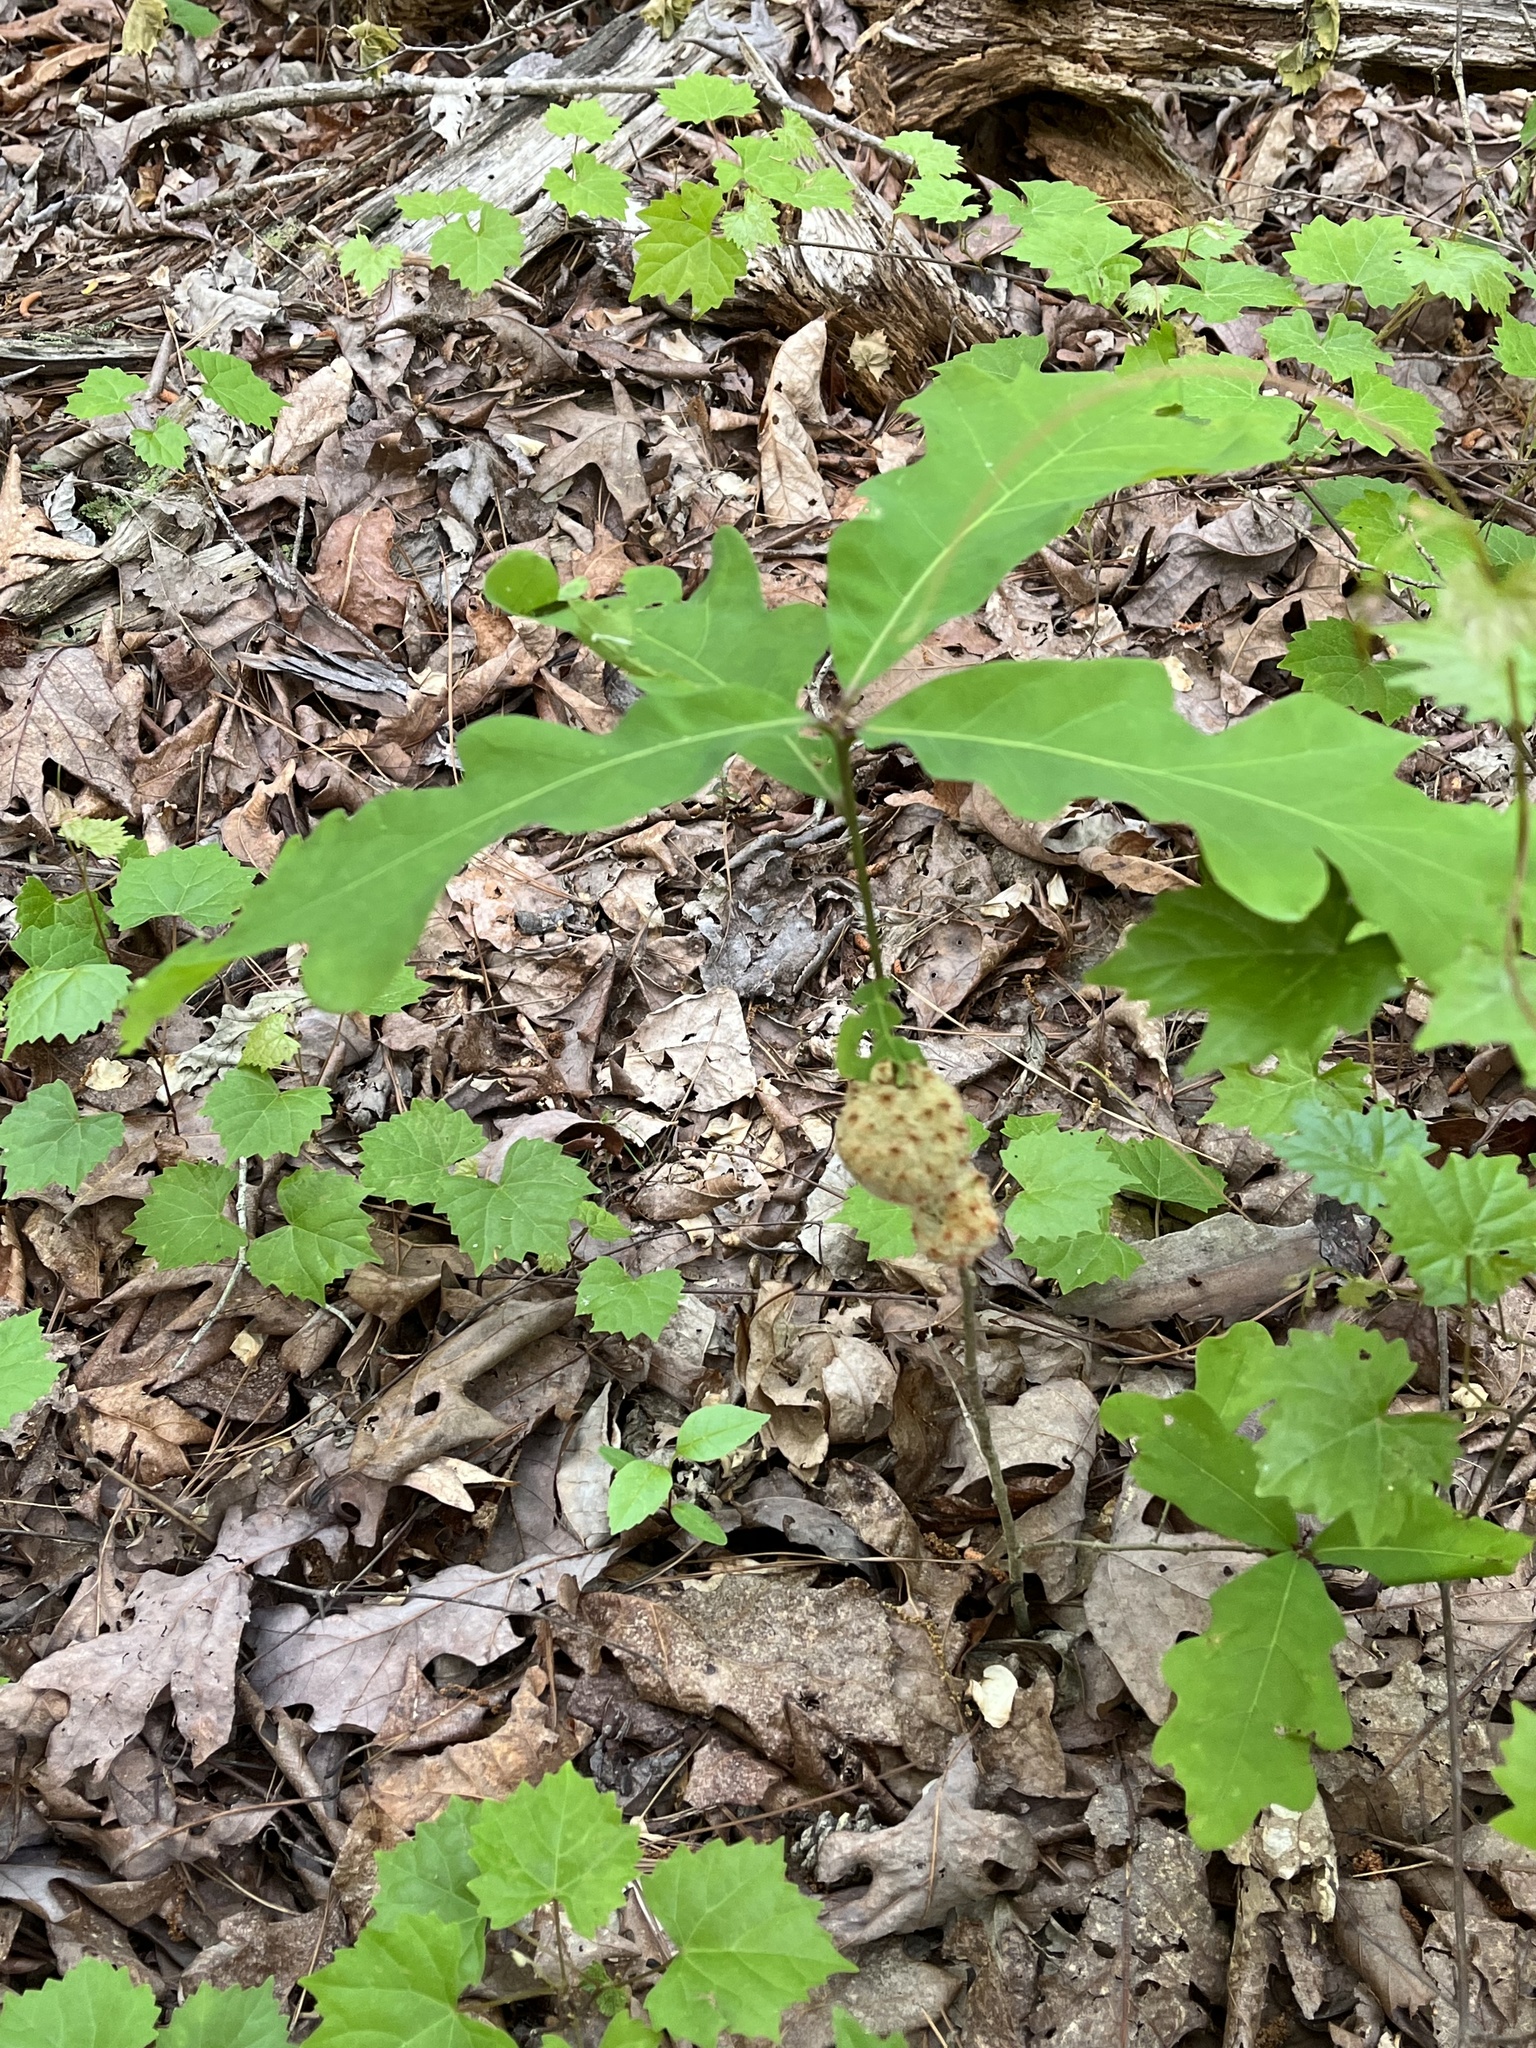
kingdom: Animalia
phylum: Arthropoda
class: Insecta
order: Hymenoptera
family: Cynipidae
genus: Callirhytis
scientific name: Callirhytis
